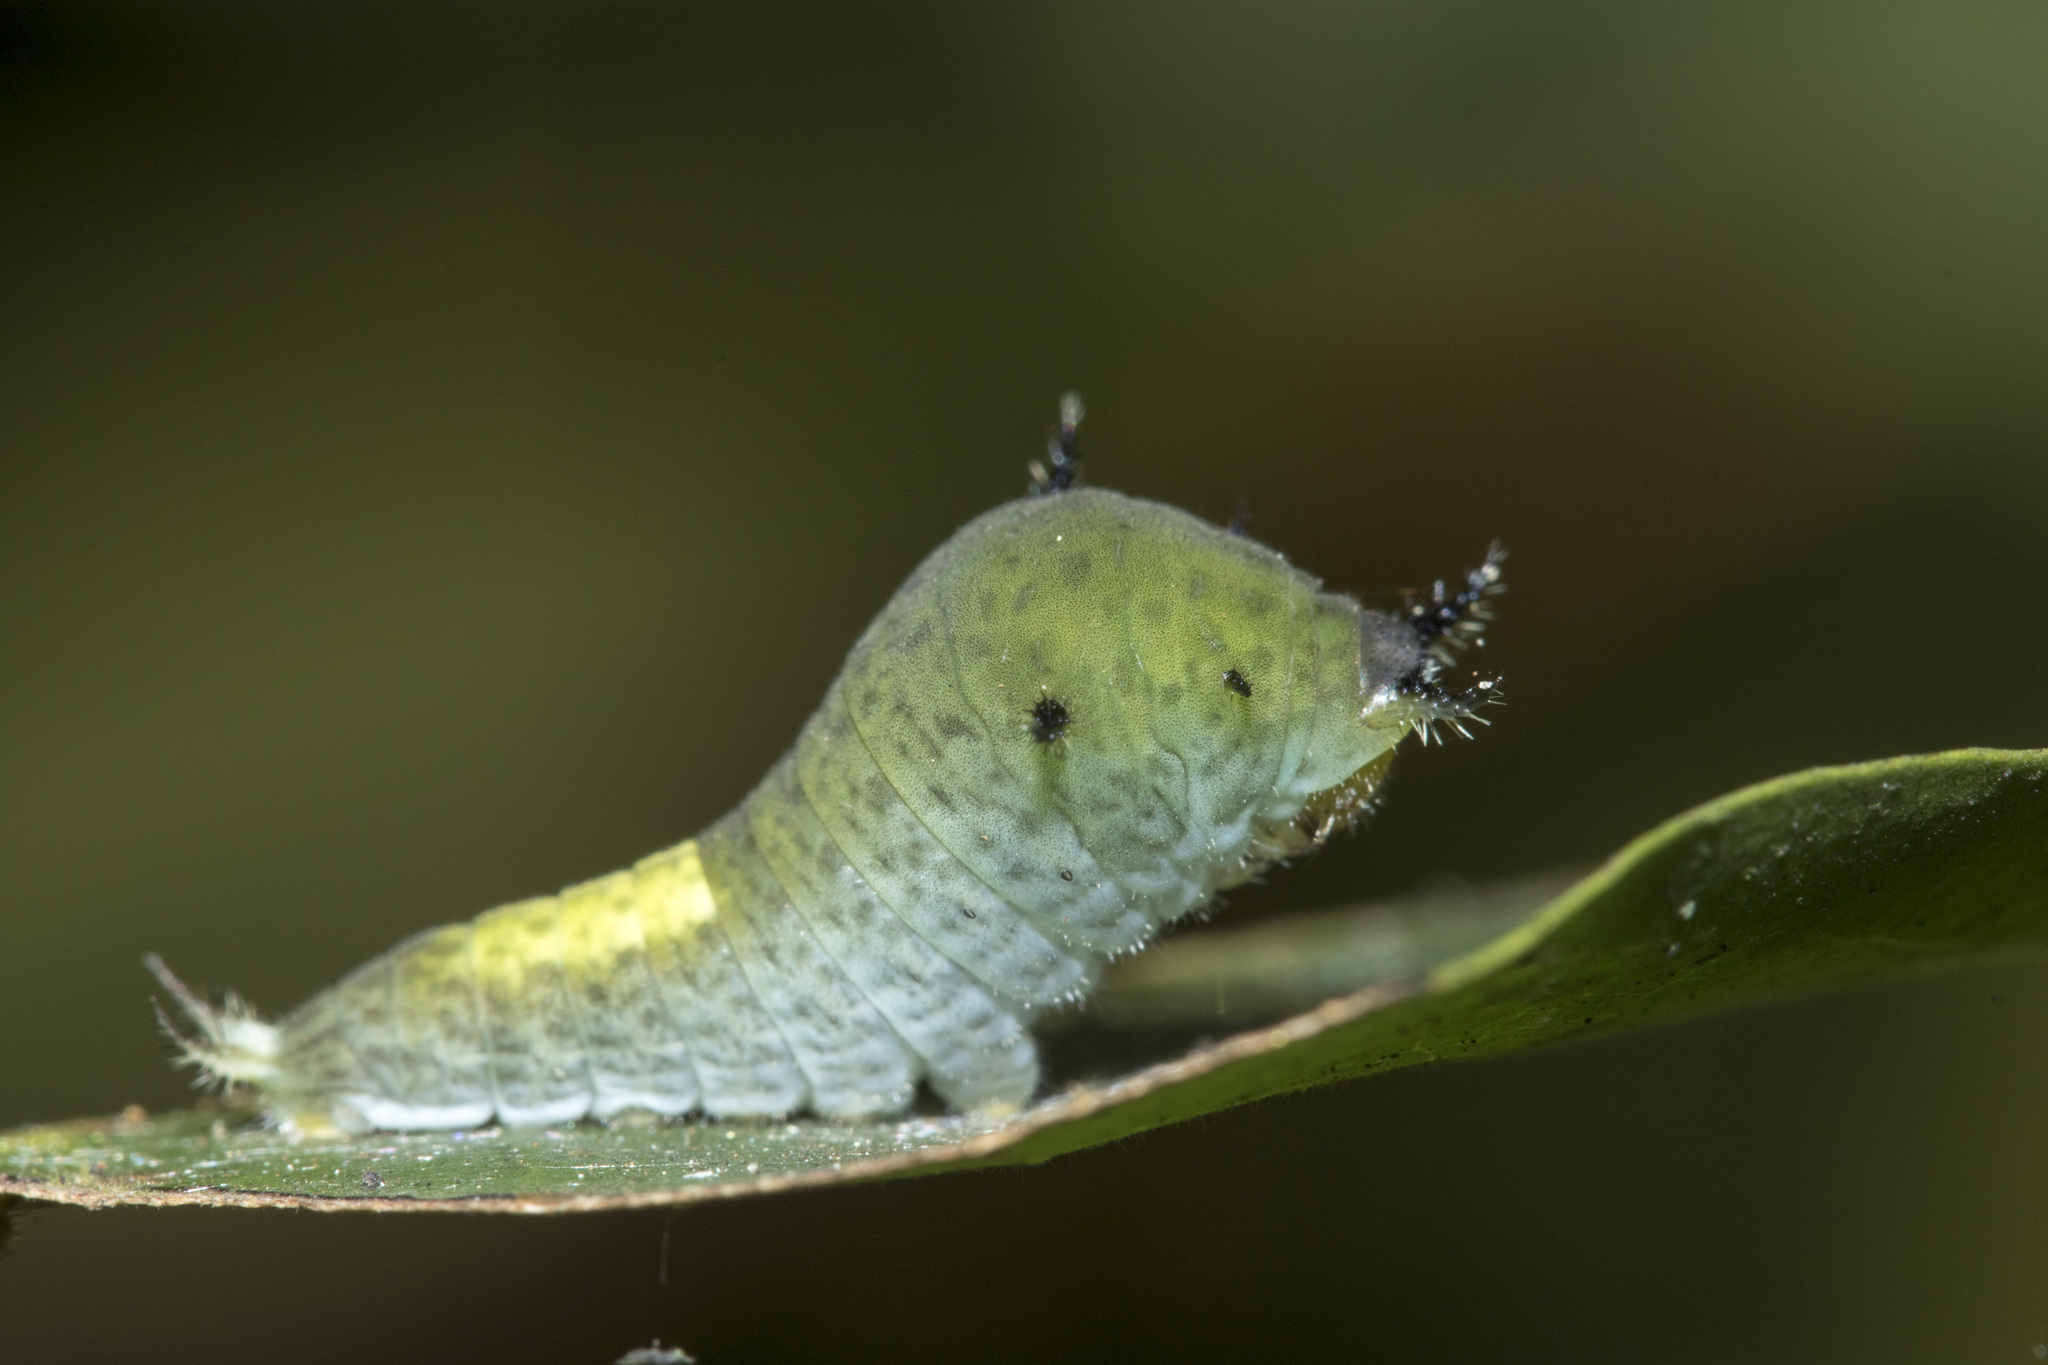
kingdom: Animalia
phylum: Arthropoda
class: Insecta
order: Lepidoptera
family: Papilionidae
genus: Graphium
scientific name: Graphium agamemnon
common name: Tailed jay
